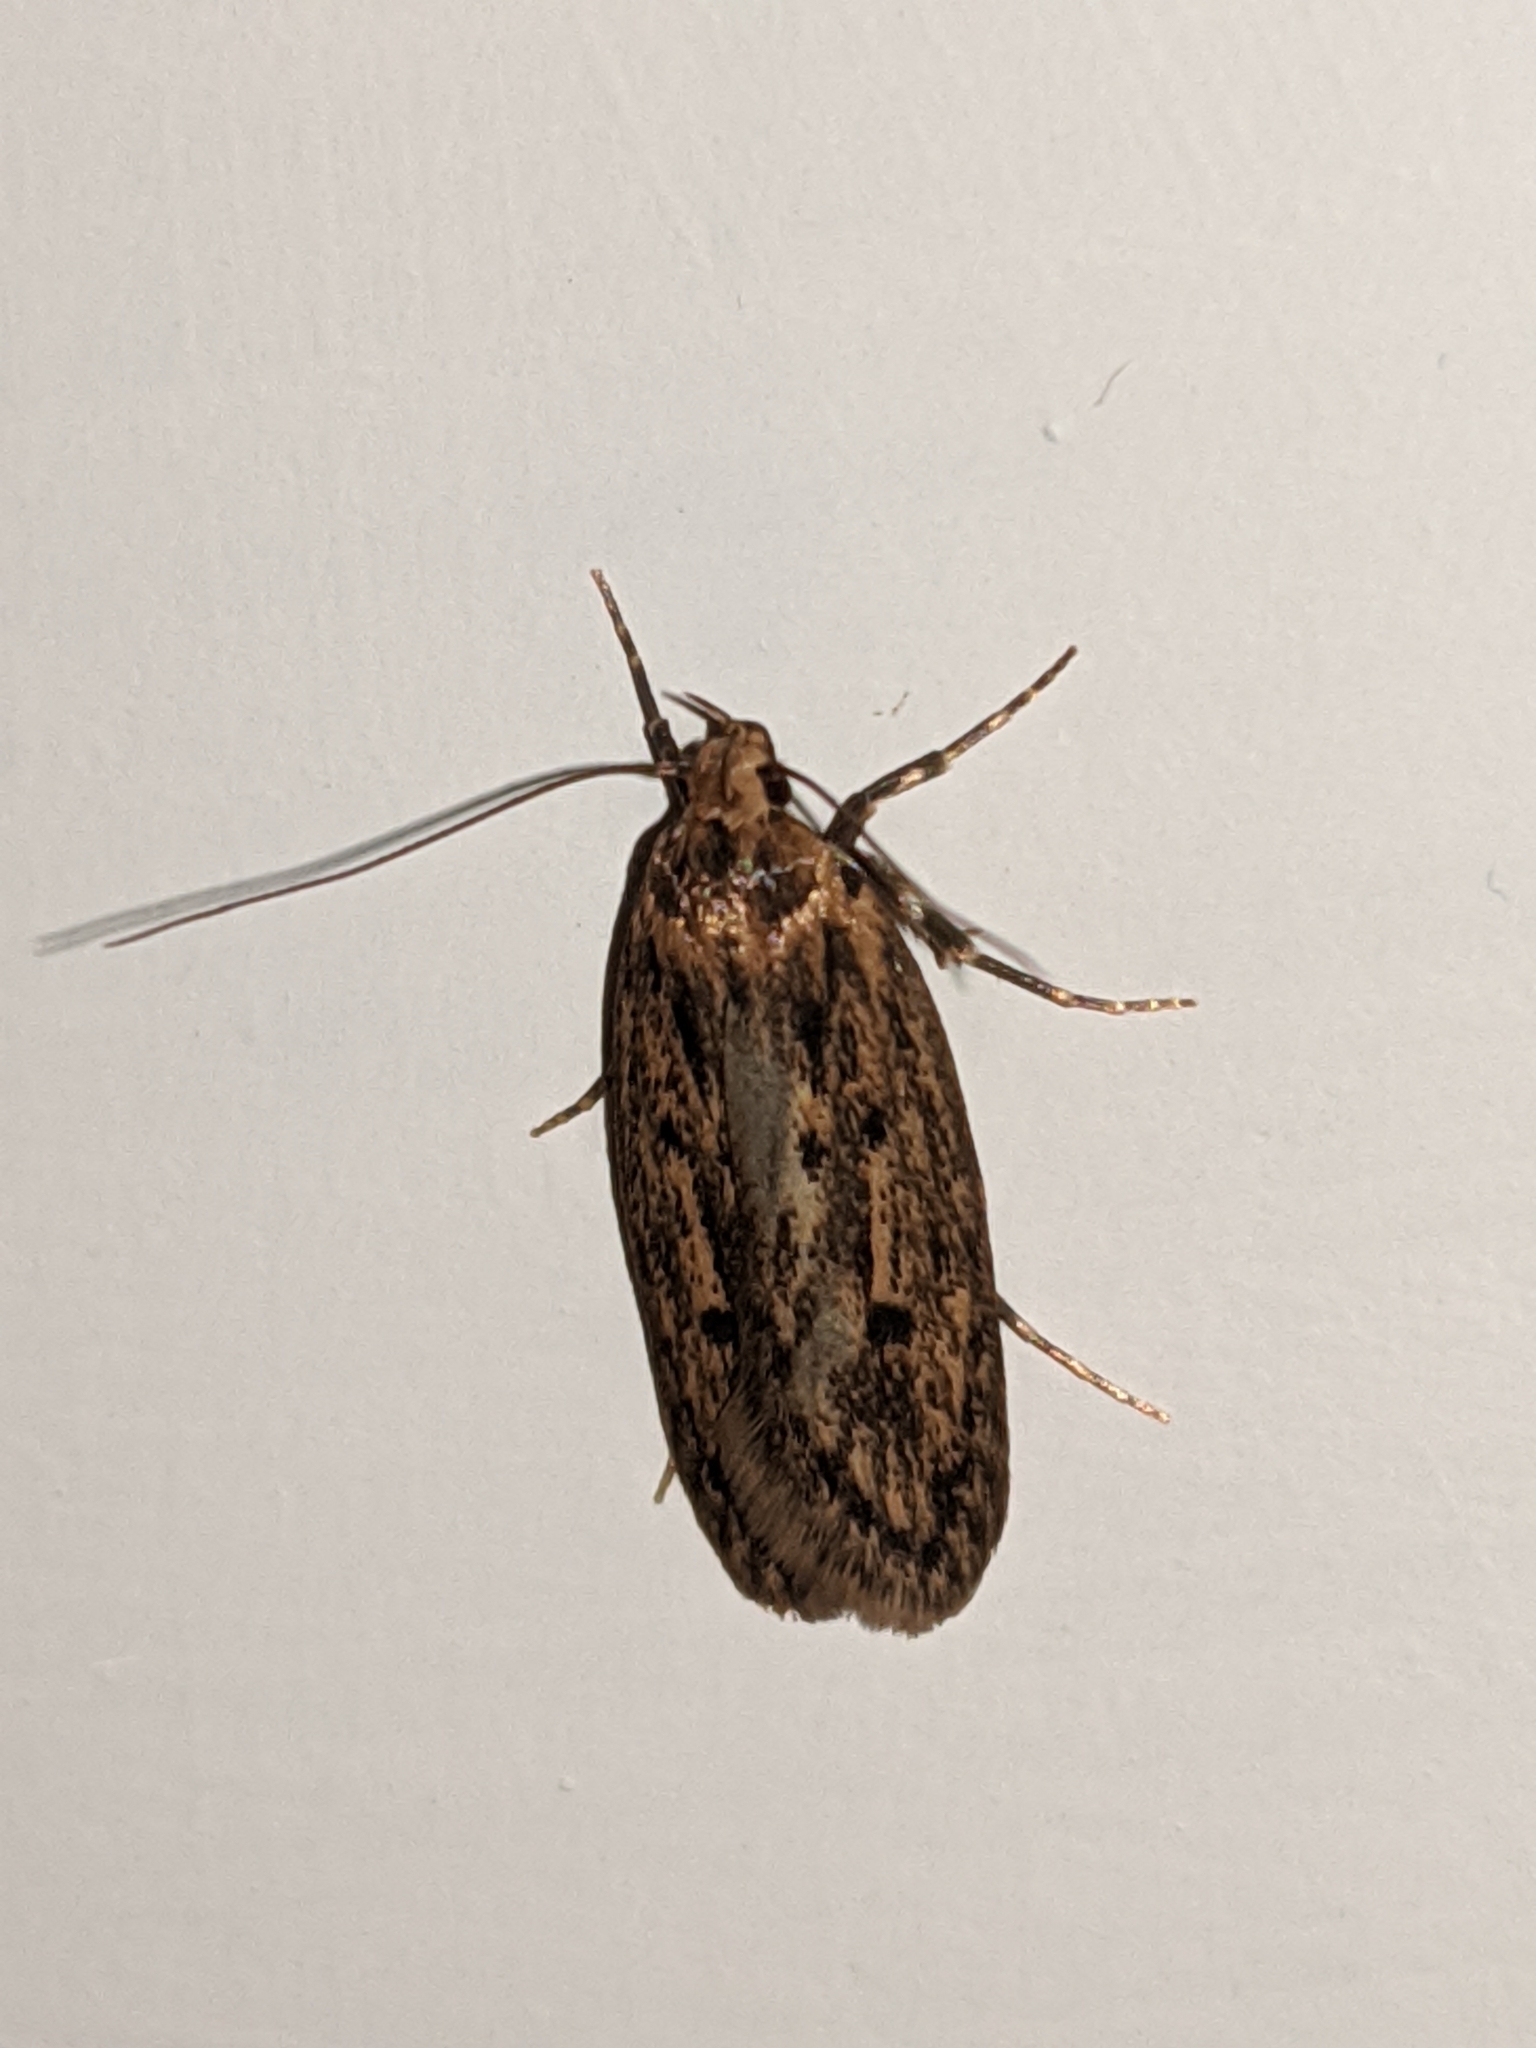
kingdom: Animalia
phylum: Arthropoda
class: Insecta
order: Lepidoptera
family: Oecophoridae
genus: Hofmannophila
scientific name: Hofmannophila pseudospretella
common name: Brown house moth
